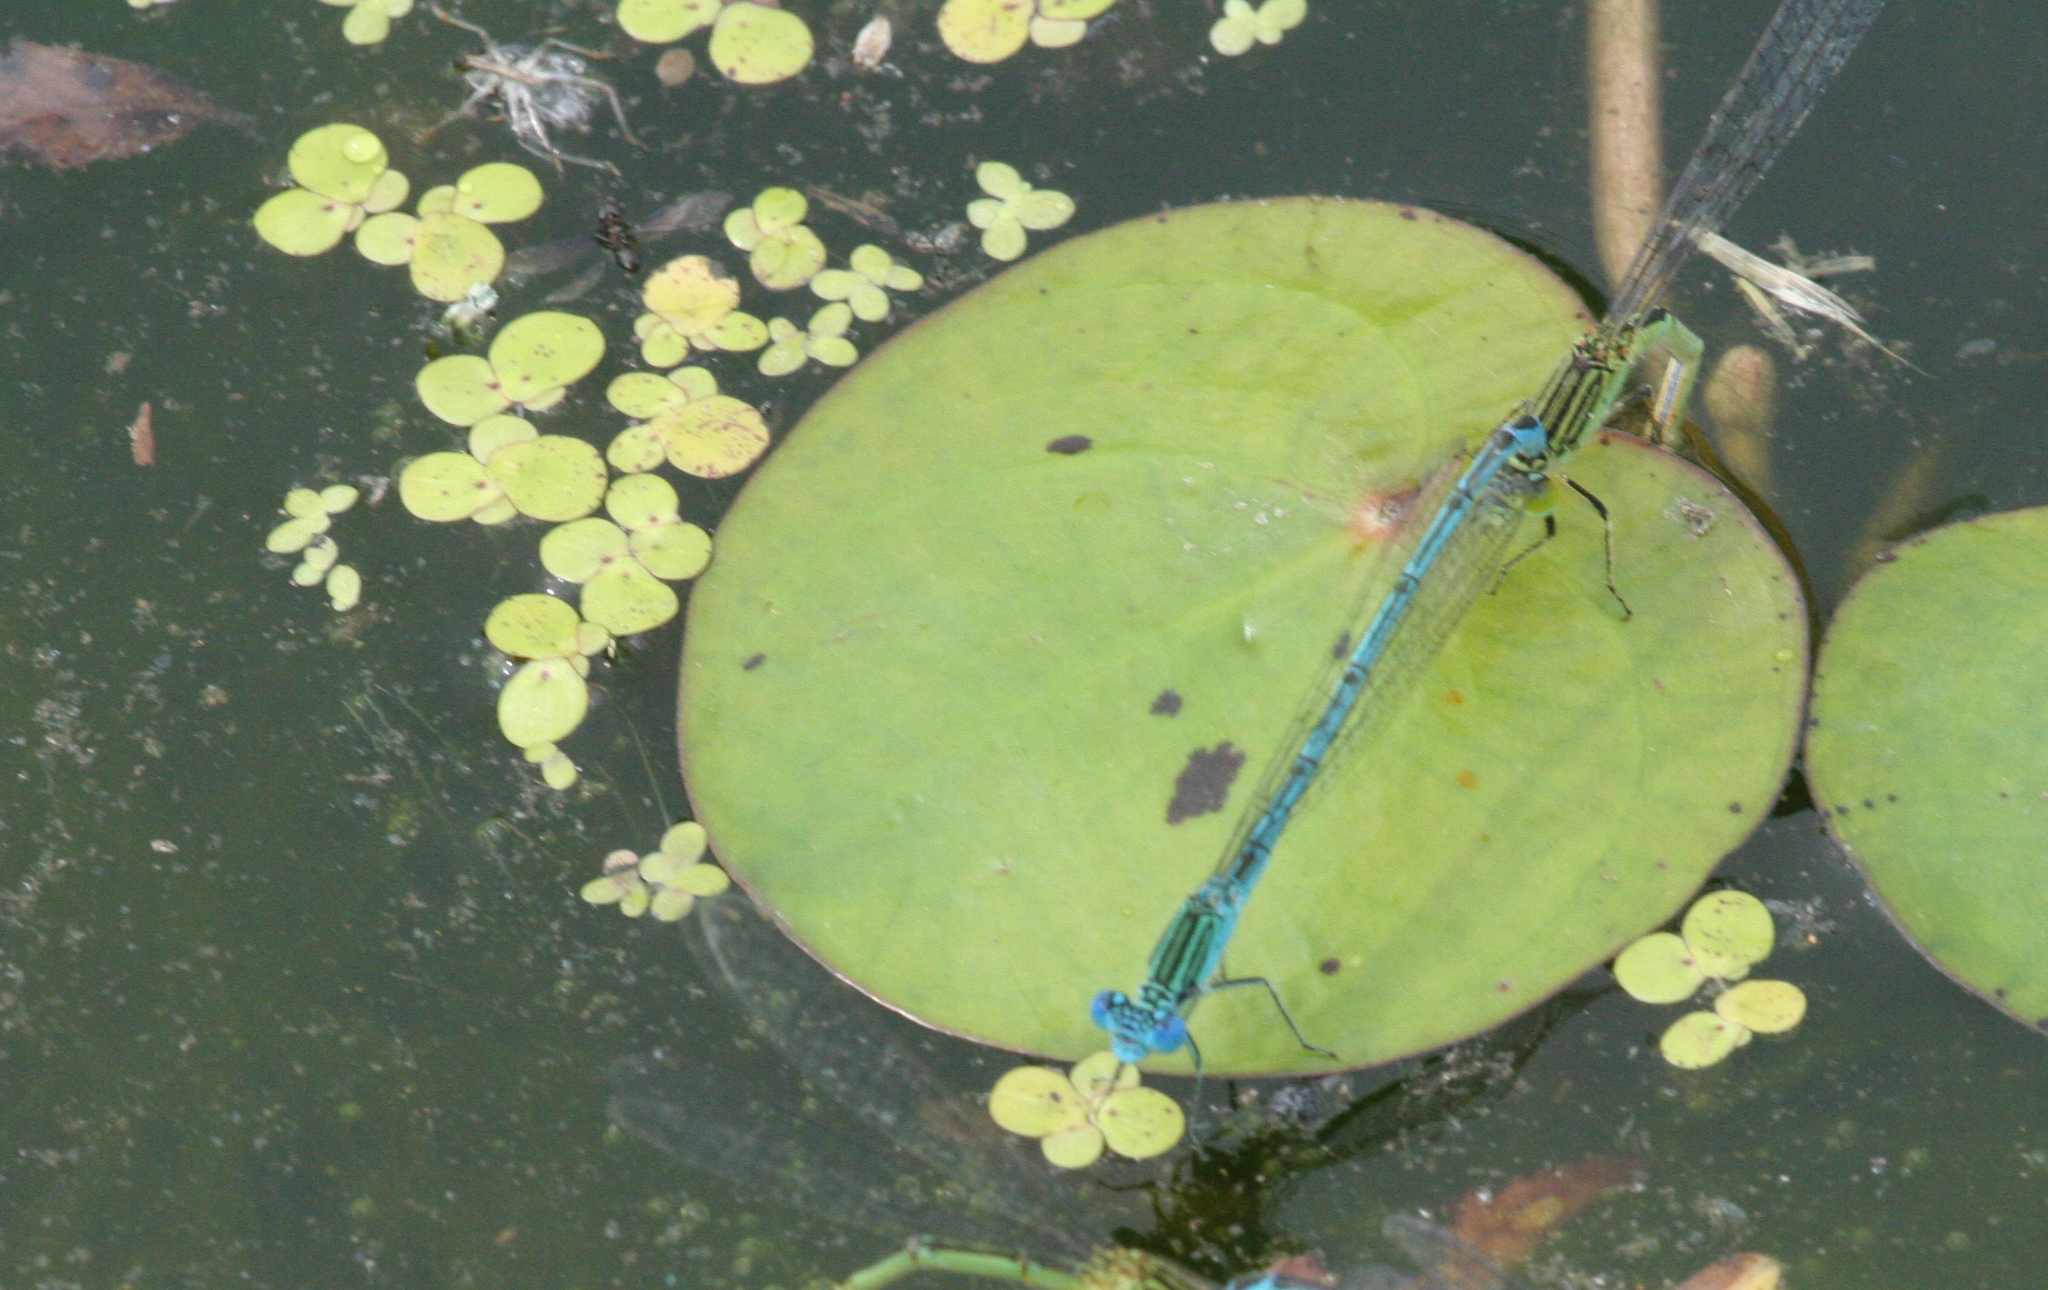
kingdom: Plantae
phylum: Tracheophyta
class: Liliopsida
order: Alismatales
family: Araceae
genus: Spirodela
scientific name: Spirodela polyrhiza
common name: Great duckweed
